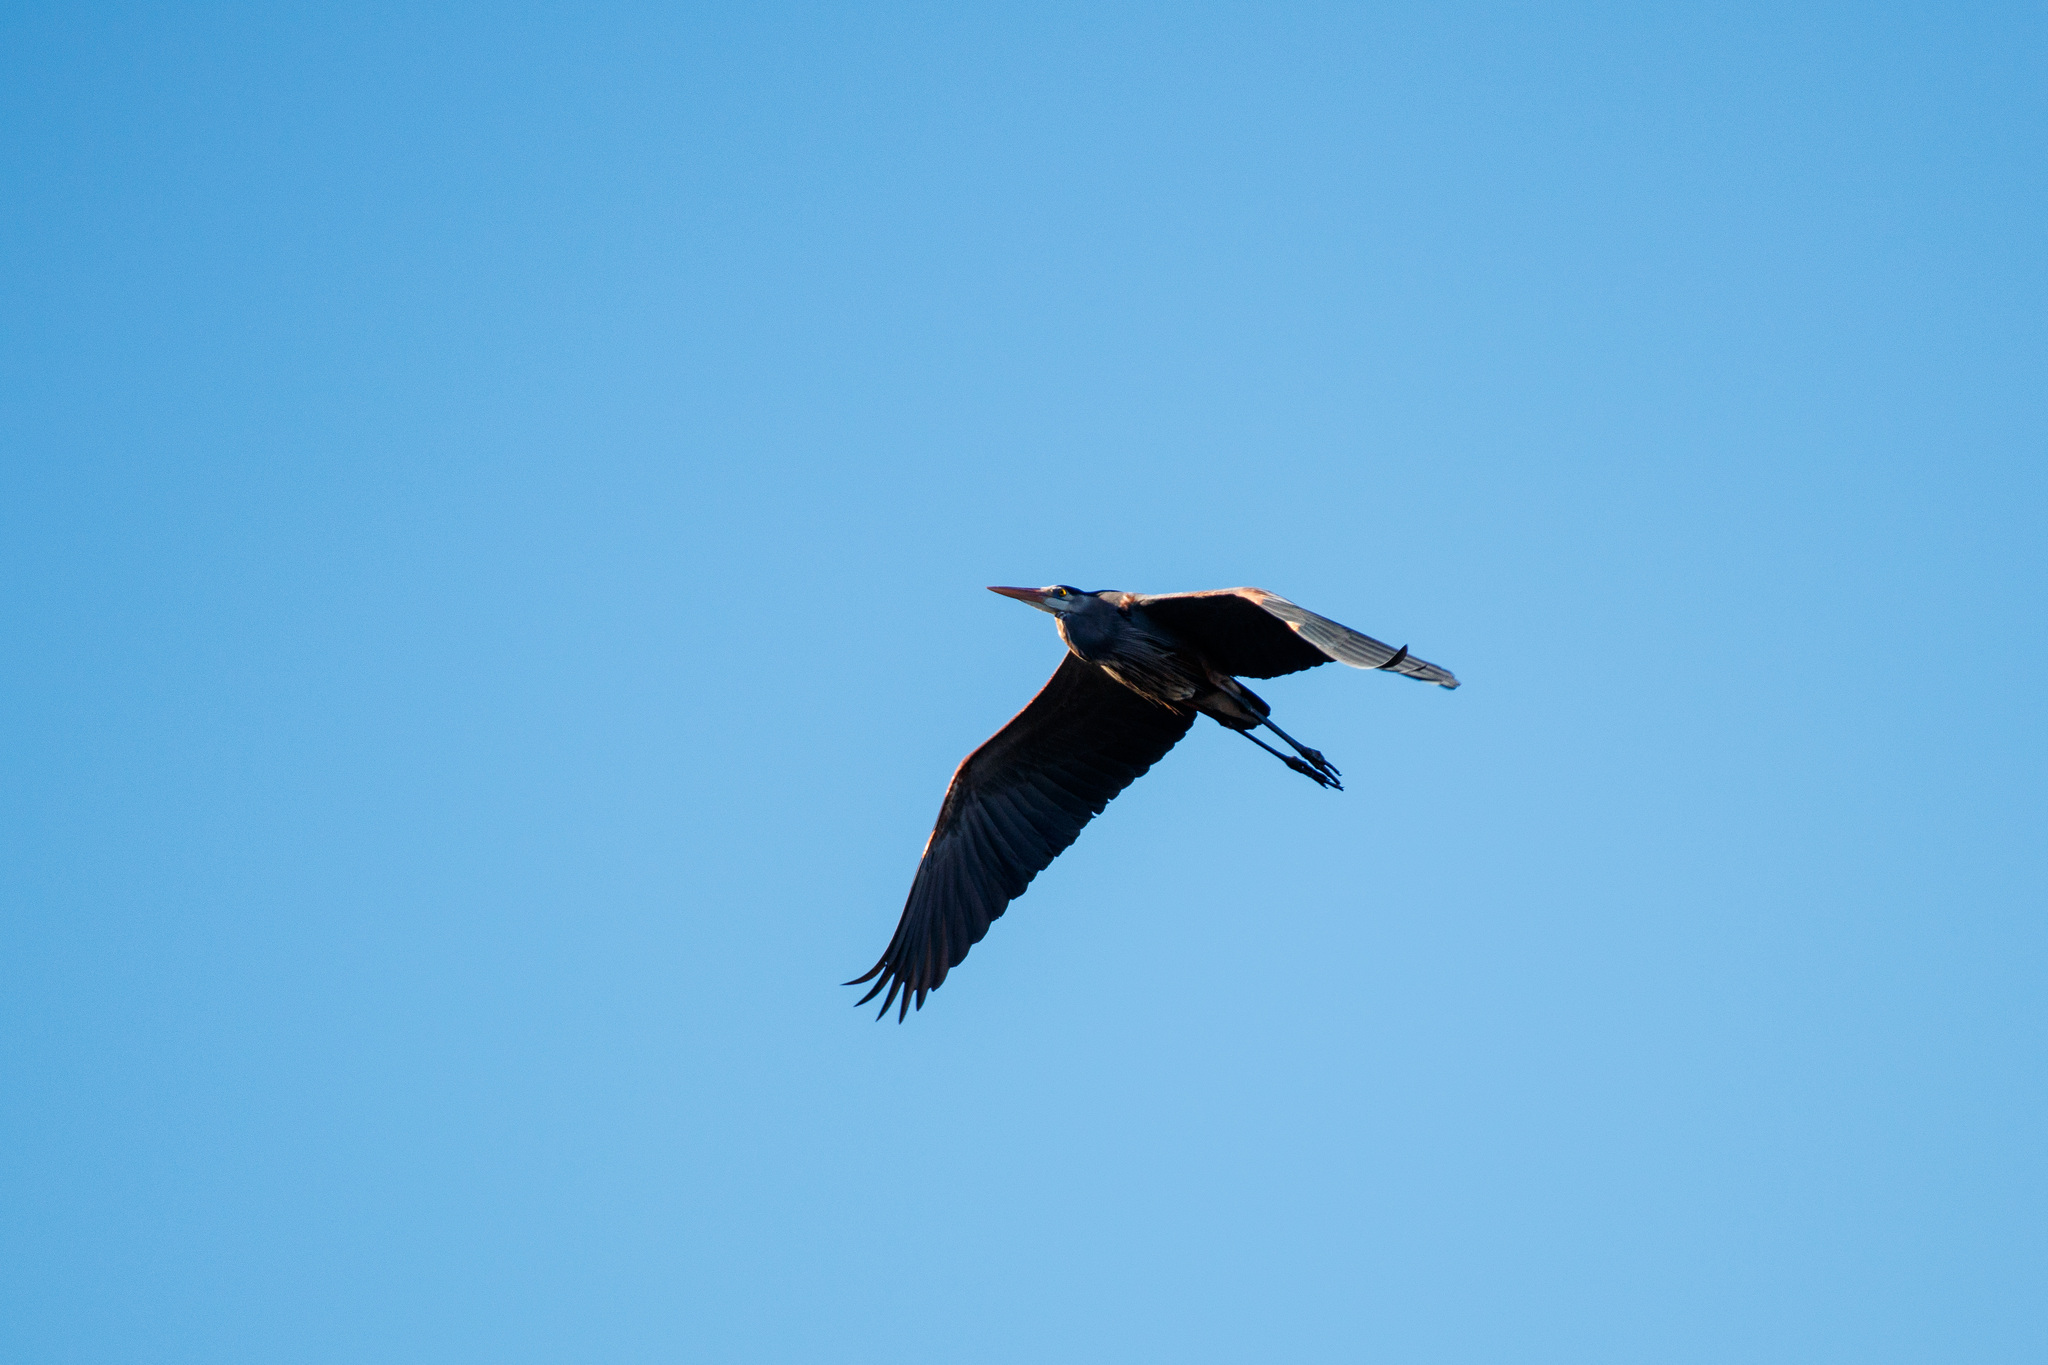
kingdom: Animalia
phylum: Chordata
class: Aves
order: Pelecaniformes
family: Ardeidae
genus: Ardea
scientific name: Ardea herodias
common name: Great blue heron
